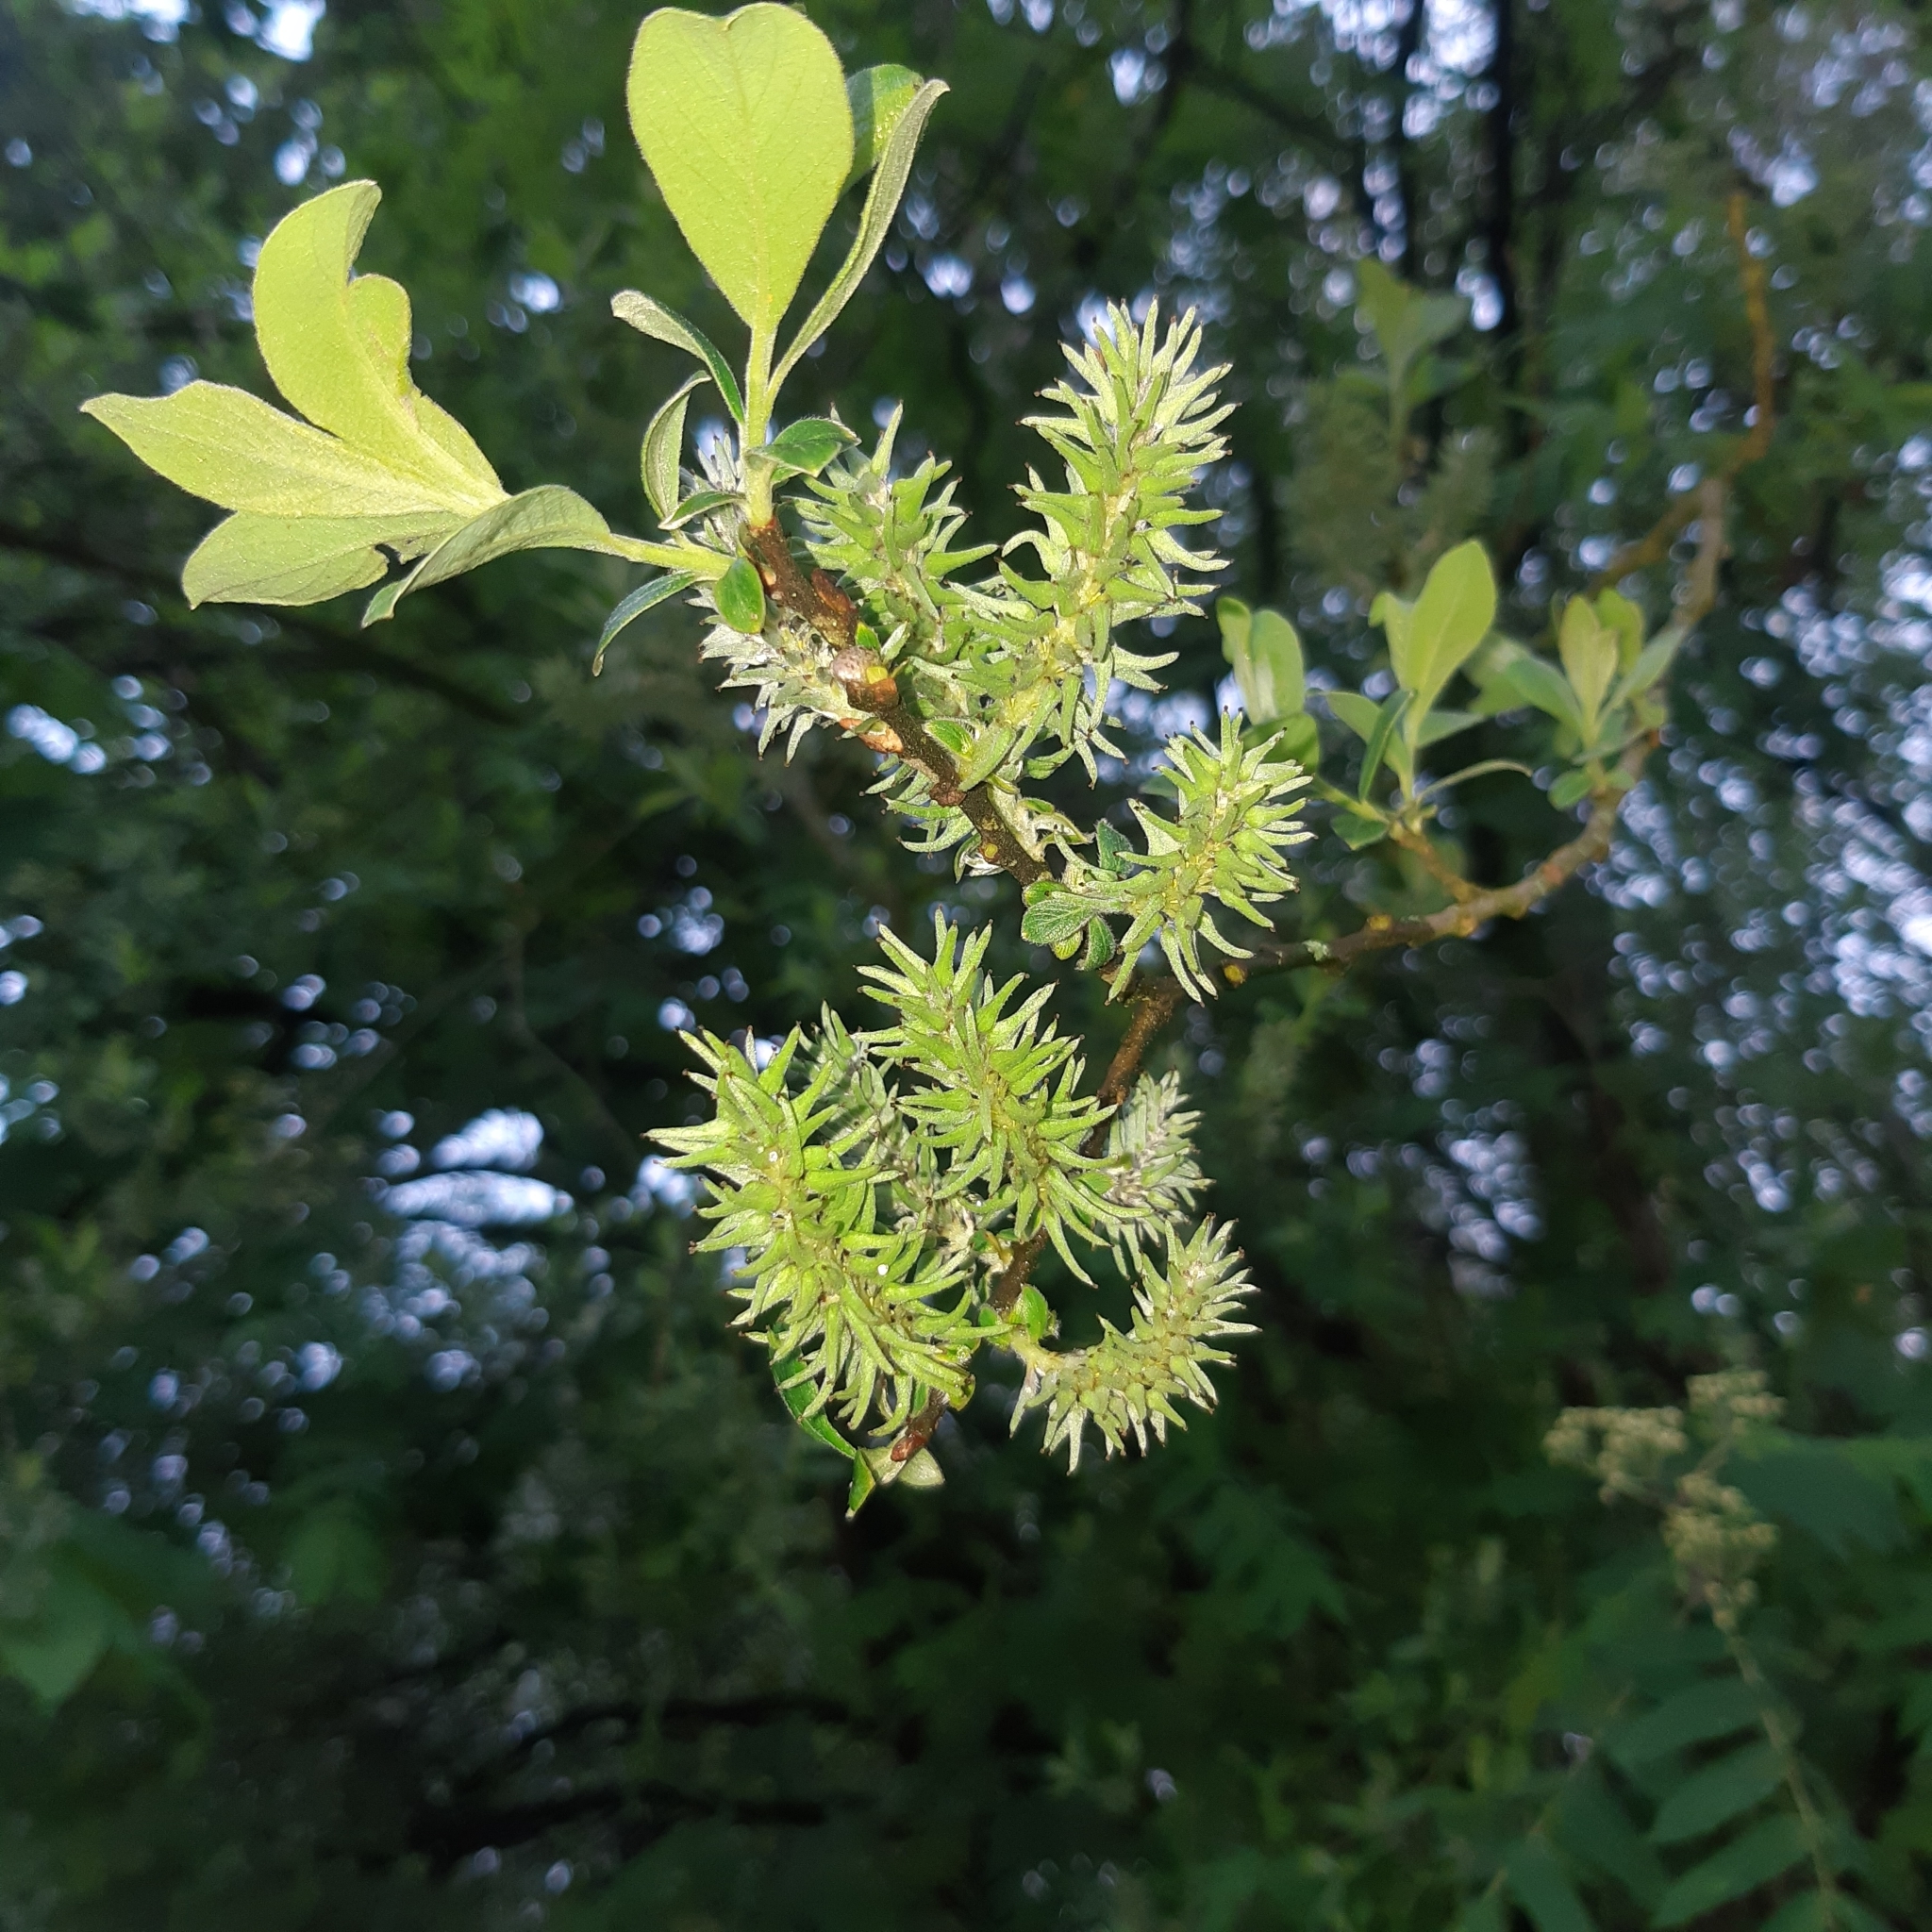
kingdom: Plantae
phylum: Tracheophyta
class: Magnoliopsida
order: Malpighiales
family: Salicaceae
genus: Salix
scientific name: Salix cinerea
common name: Common sallow
